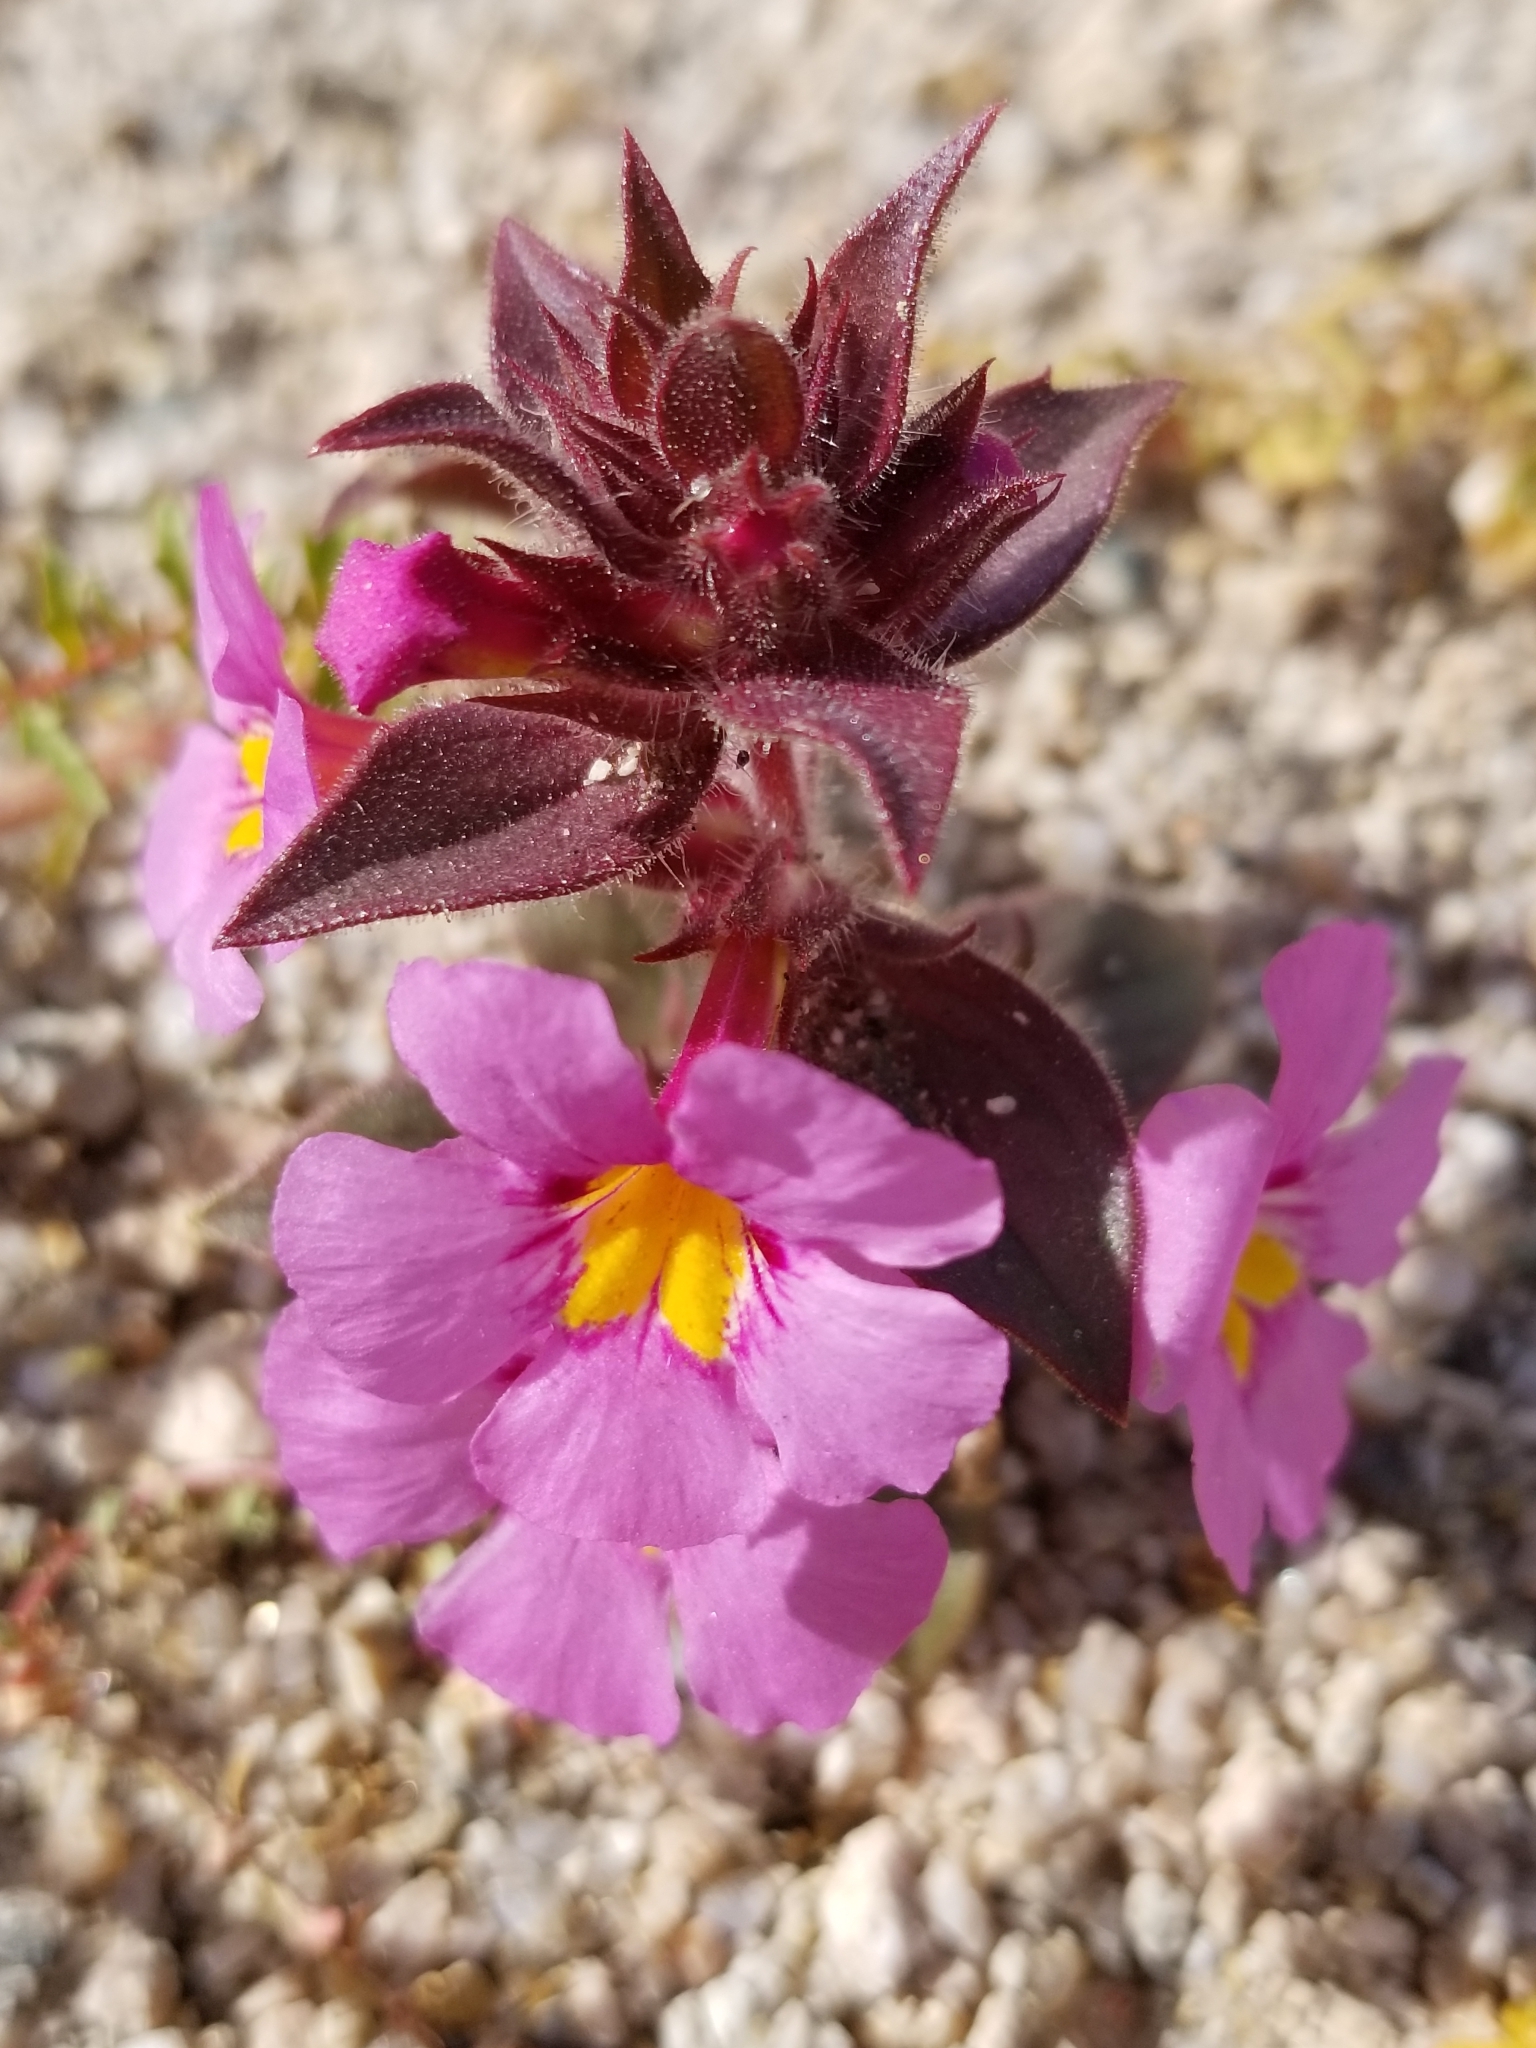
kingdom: Plantae
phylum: Tracheophyta
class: Magnoliopsida
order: Lamiales
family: Phrymaceae
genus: Diplacus
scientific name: Diplacus bigelovii
